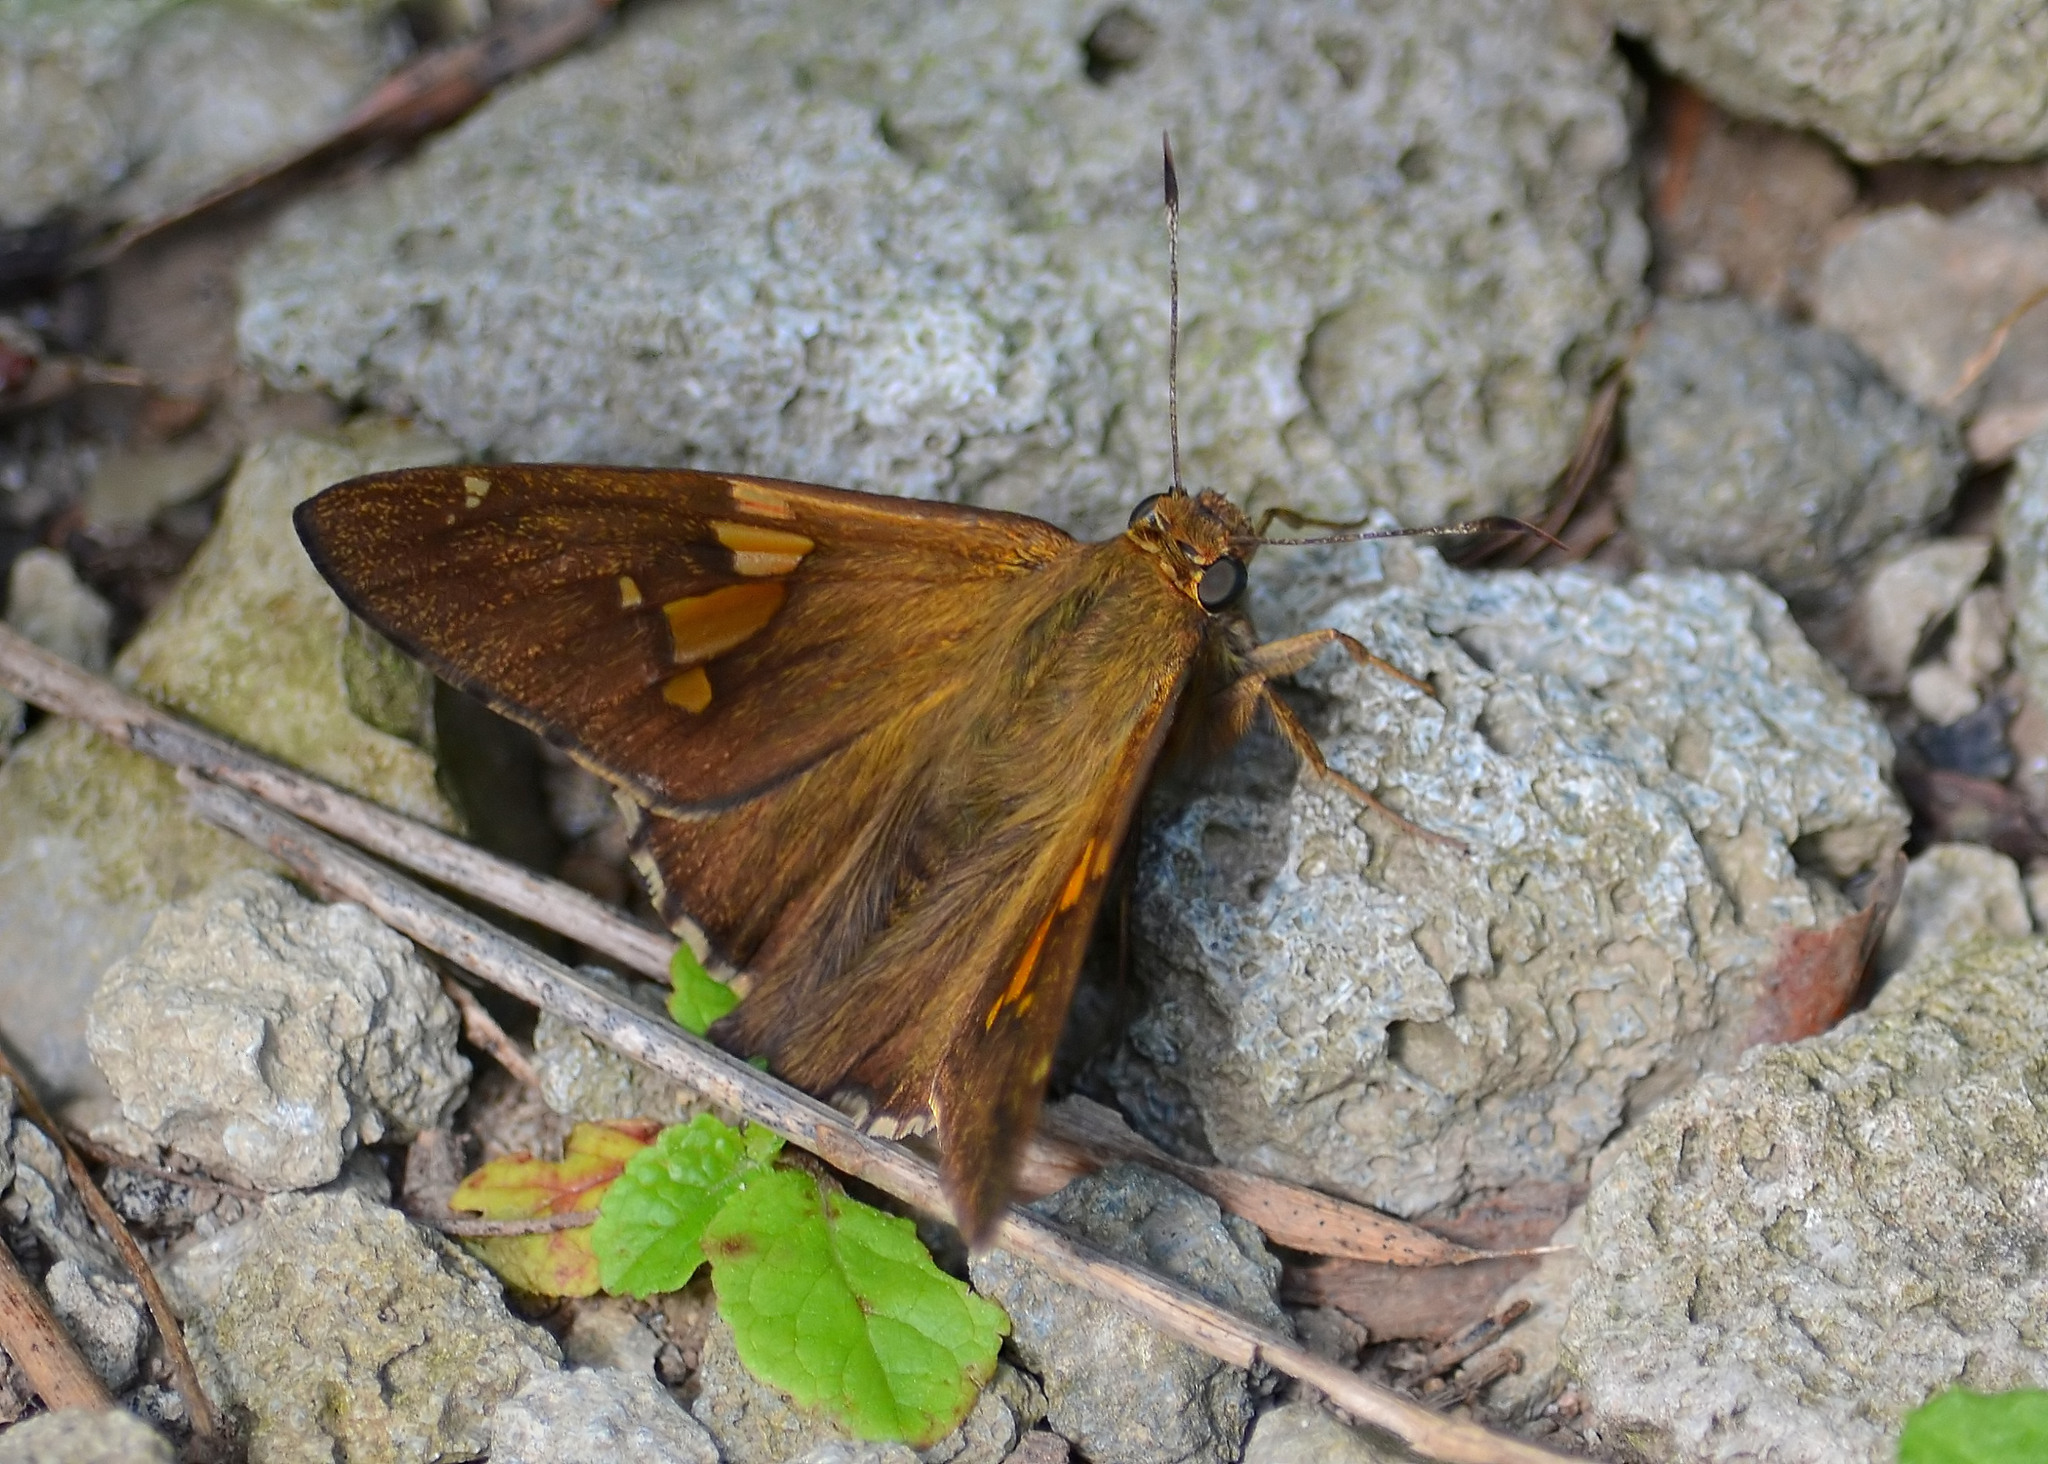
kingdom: Animalia
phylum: Arthropoda
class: Insecta
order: Lepidoptera
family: Hesperiidae
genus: Epargyreus
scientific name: Epargyreus clarus
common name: Silver-spotted skipper
